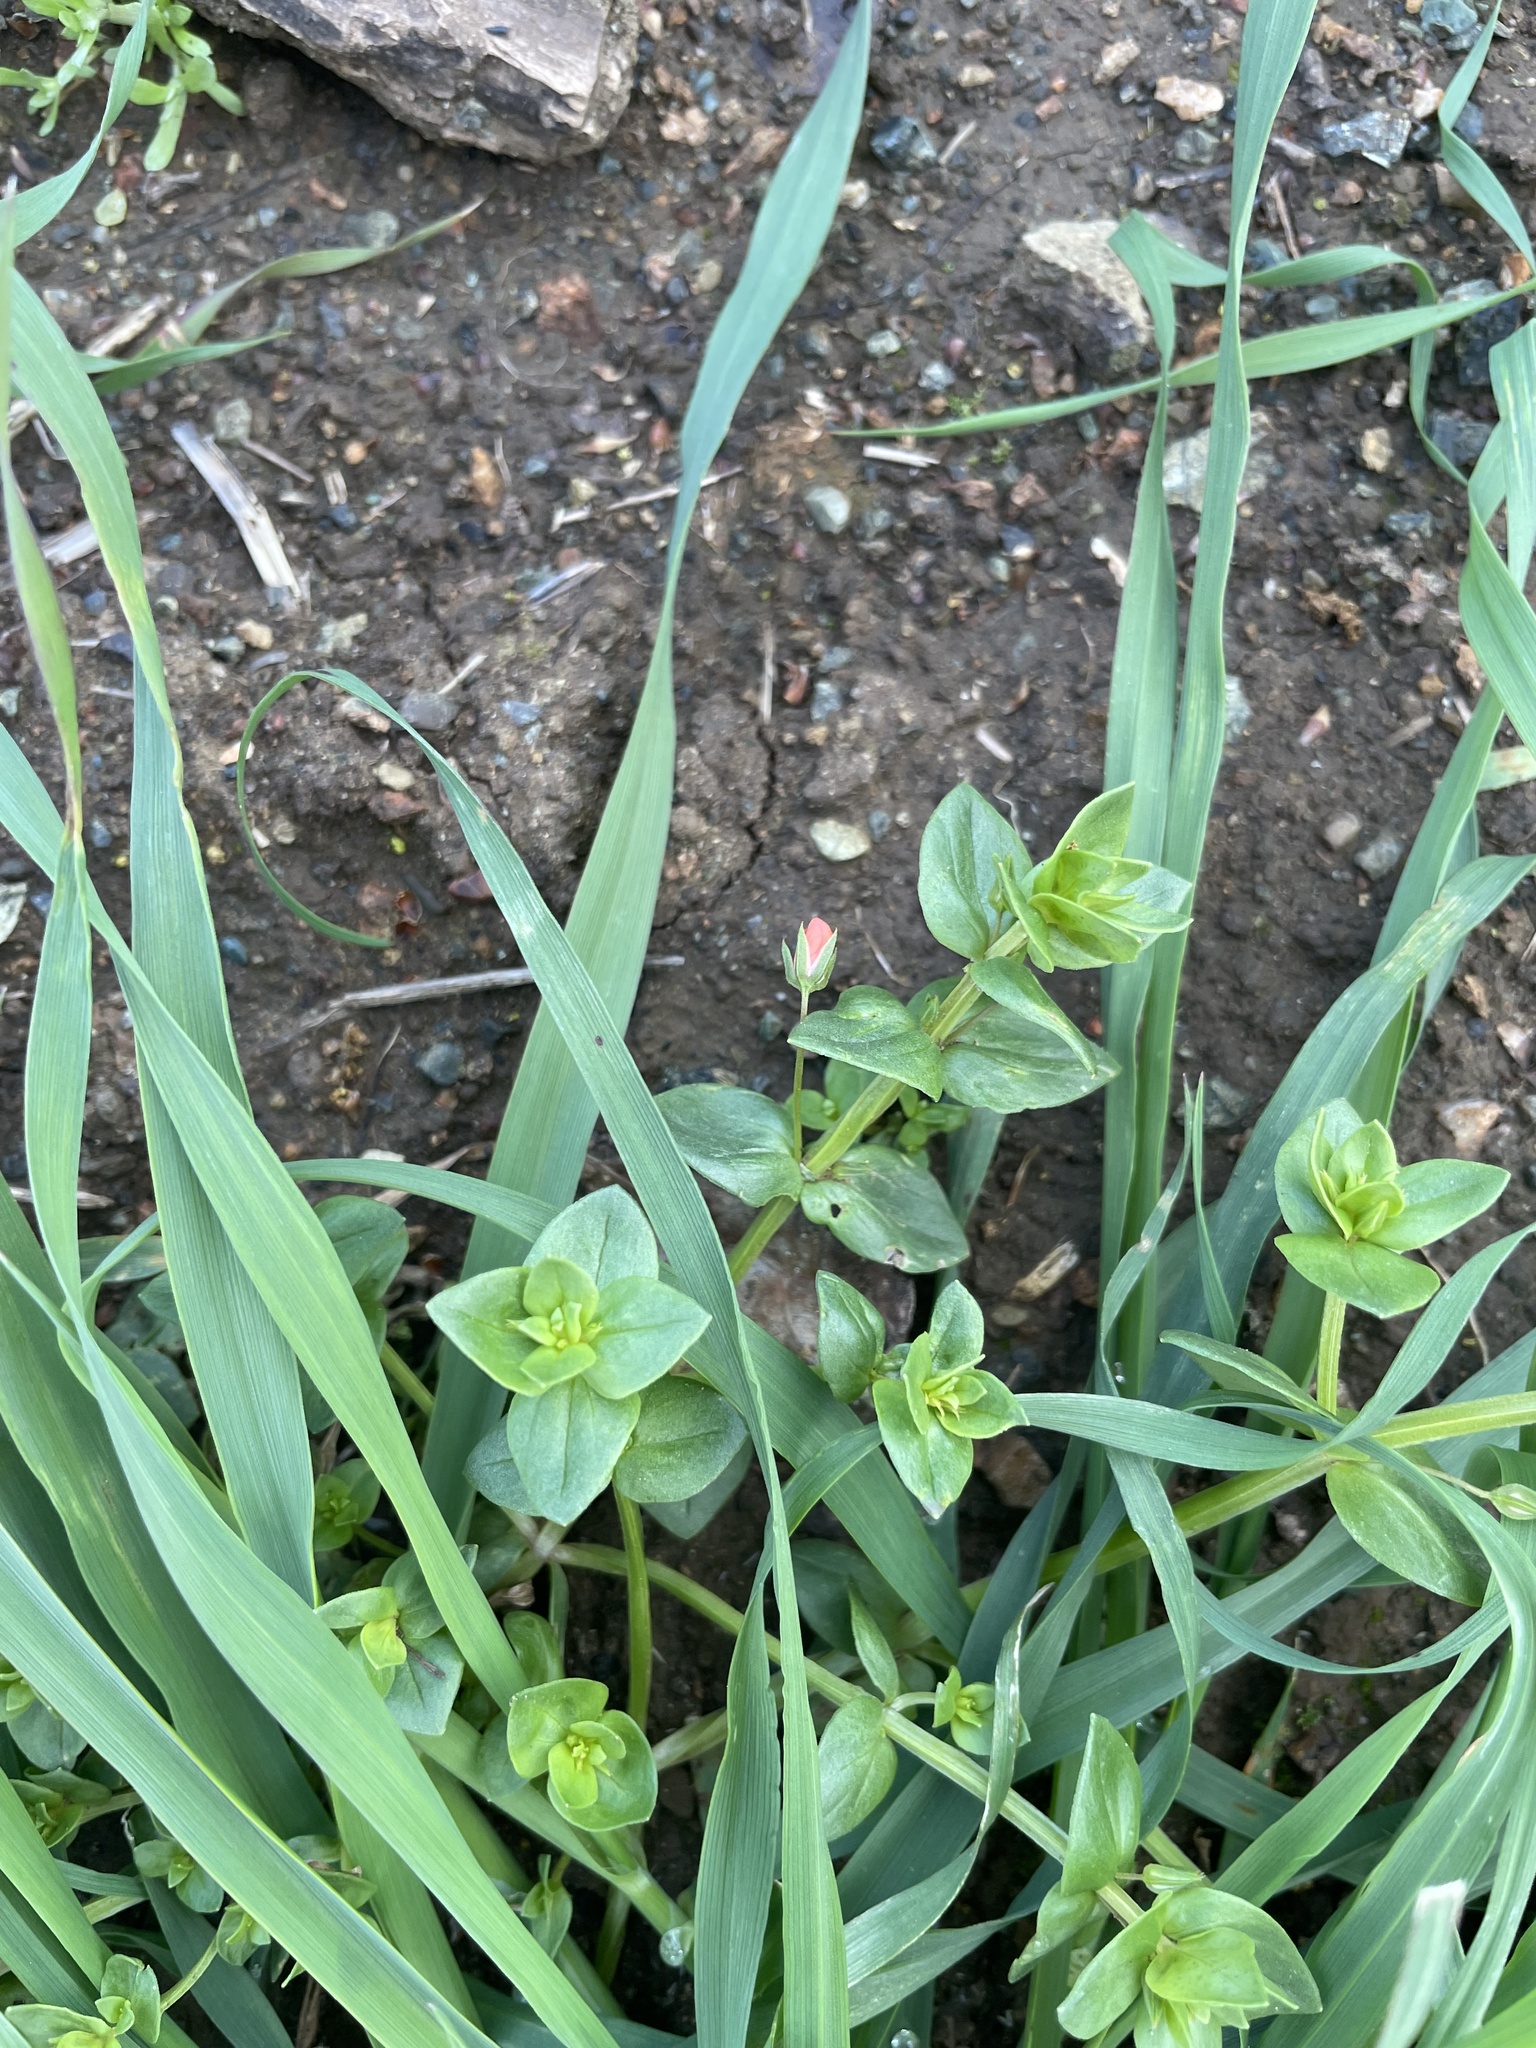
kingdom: Plantae
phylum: Tracheophyta
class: Magnoliopsida
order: Ericales
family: Primulaceae
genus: Lysimachia
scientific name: Lysimachia arvensis
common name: Scarlet pimpernel
